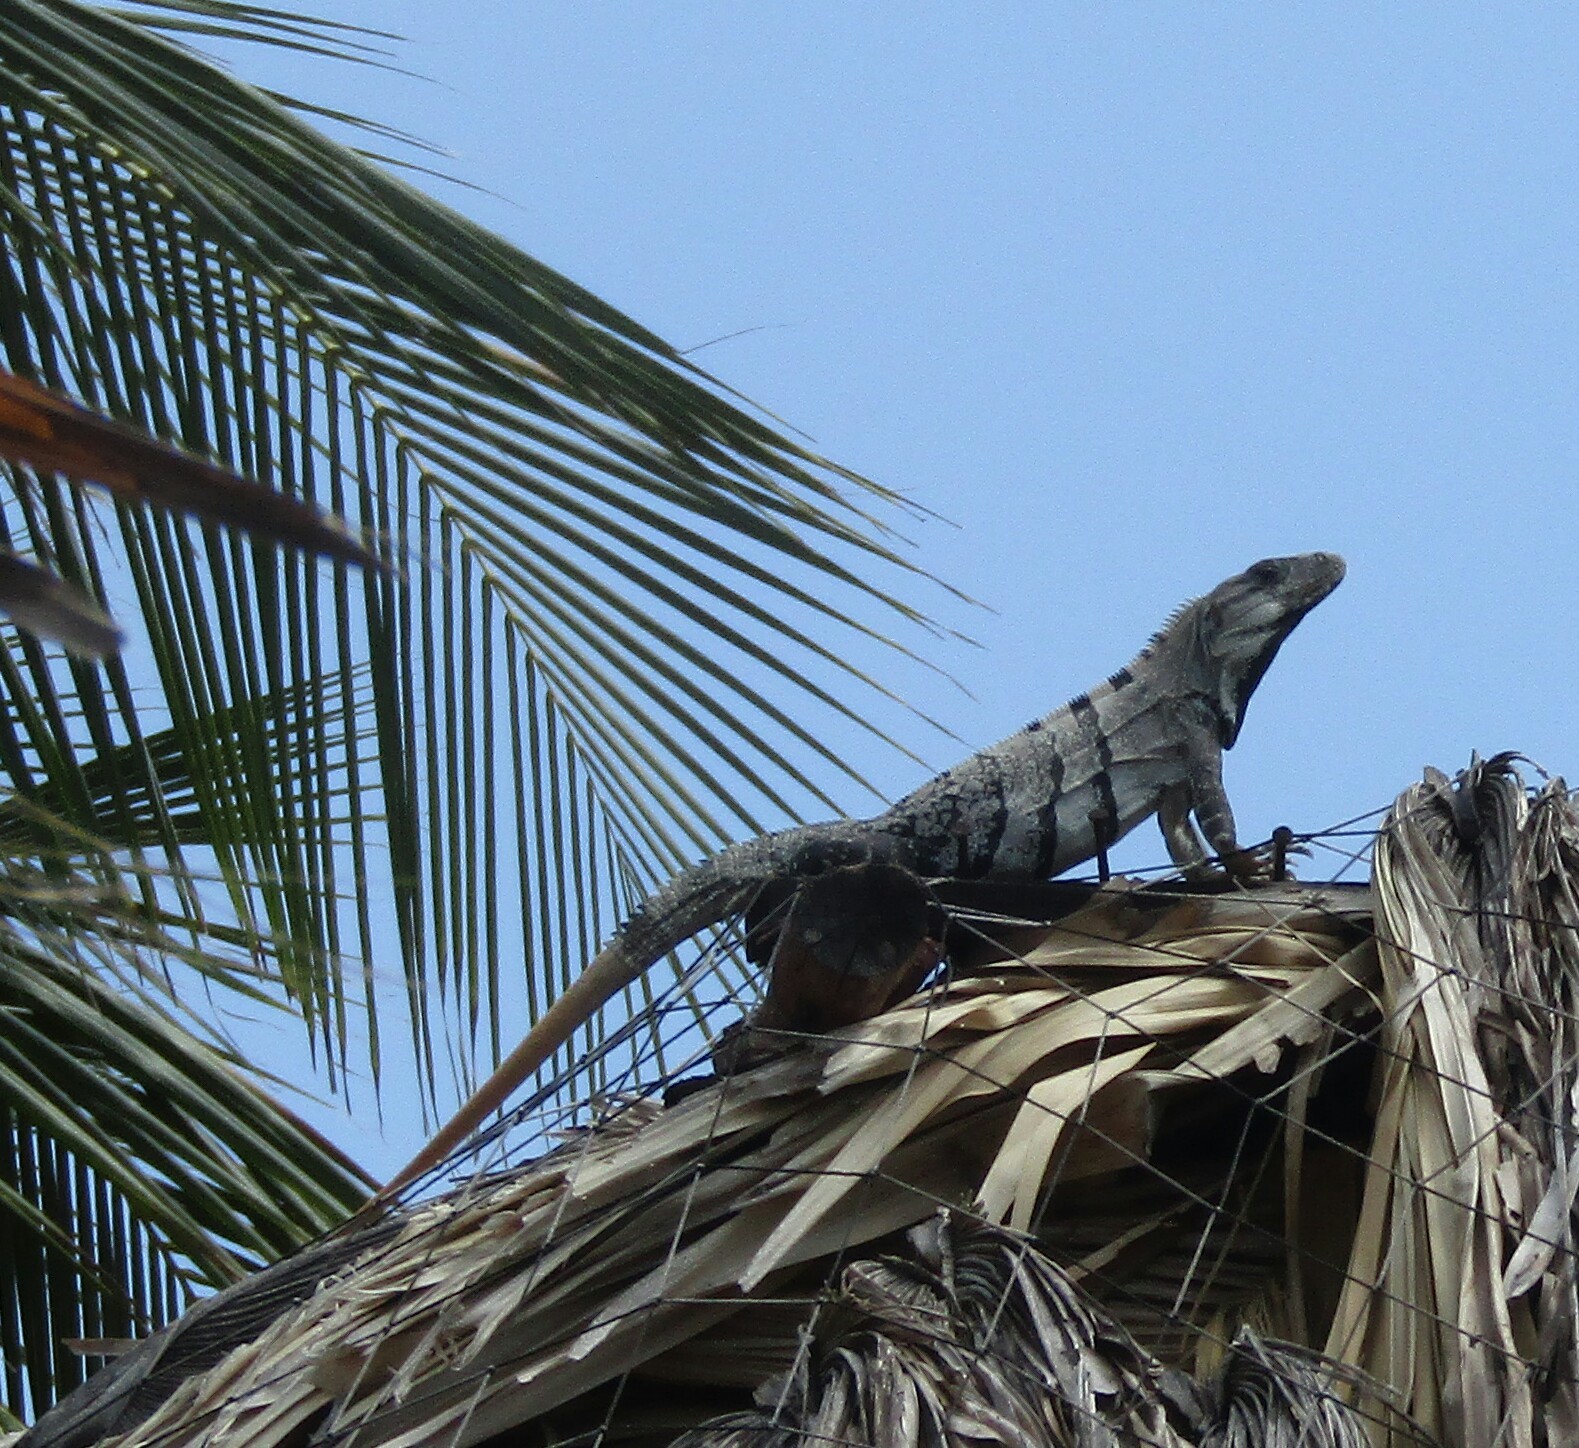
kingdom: Animalia
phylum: Chordata
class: Squamata
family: Iguanidae
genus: Ctenosaura
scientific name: Ctenosaura similis
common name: Black spiny-tailed iguana
